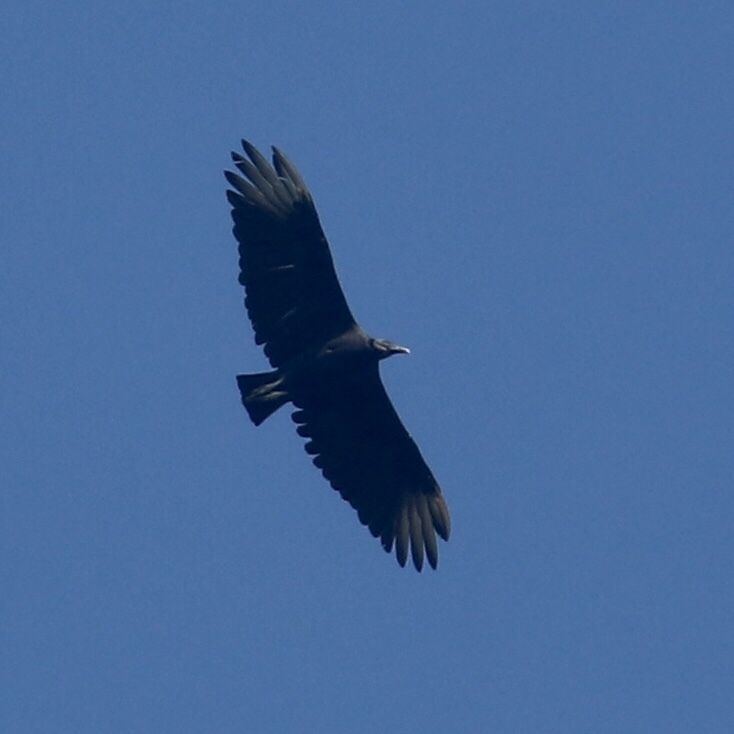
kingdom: Animalia
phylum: Chordata
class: Aves
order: Accipitriformes
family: Cathartidae
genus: Coragyps
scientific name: Coragyps atratus
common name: Black vulture
